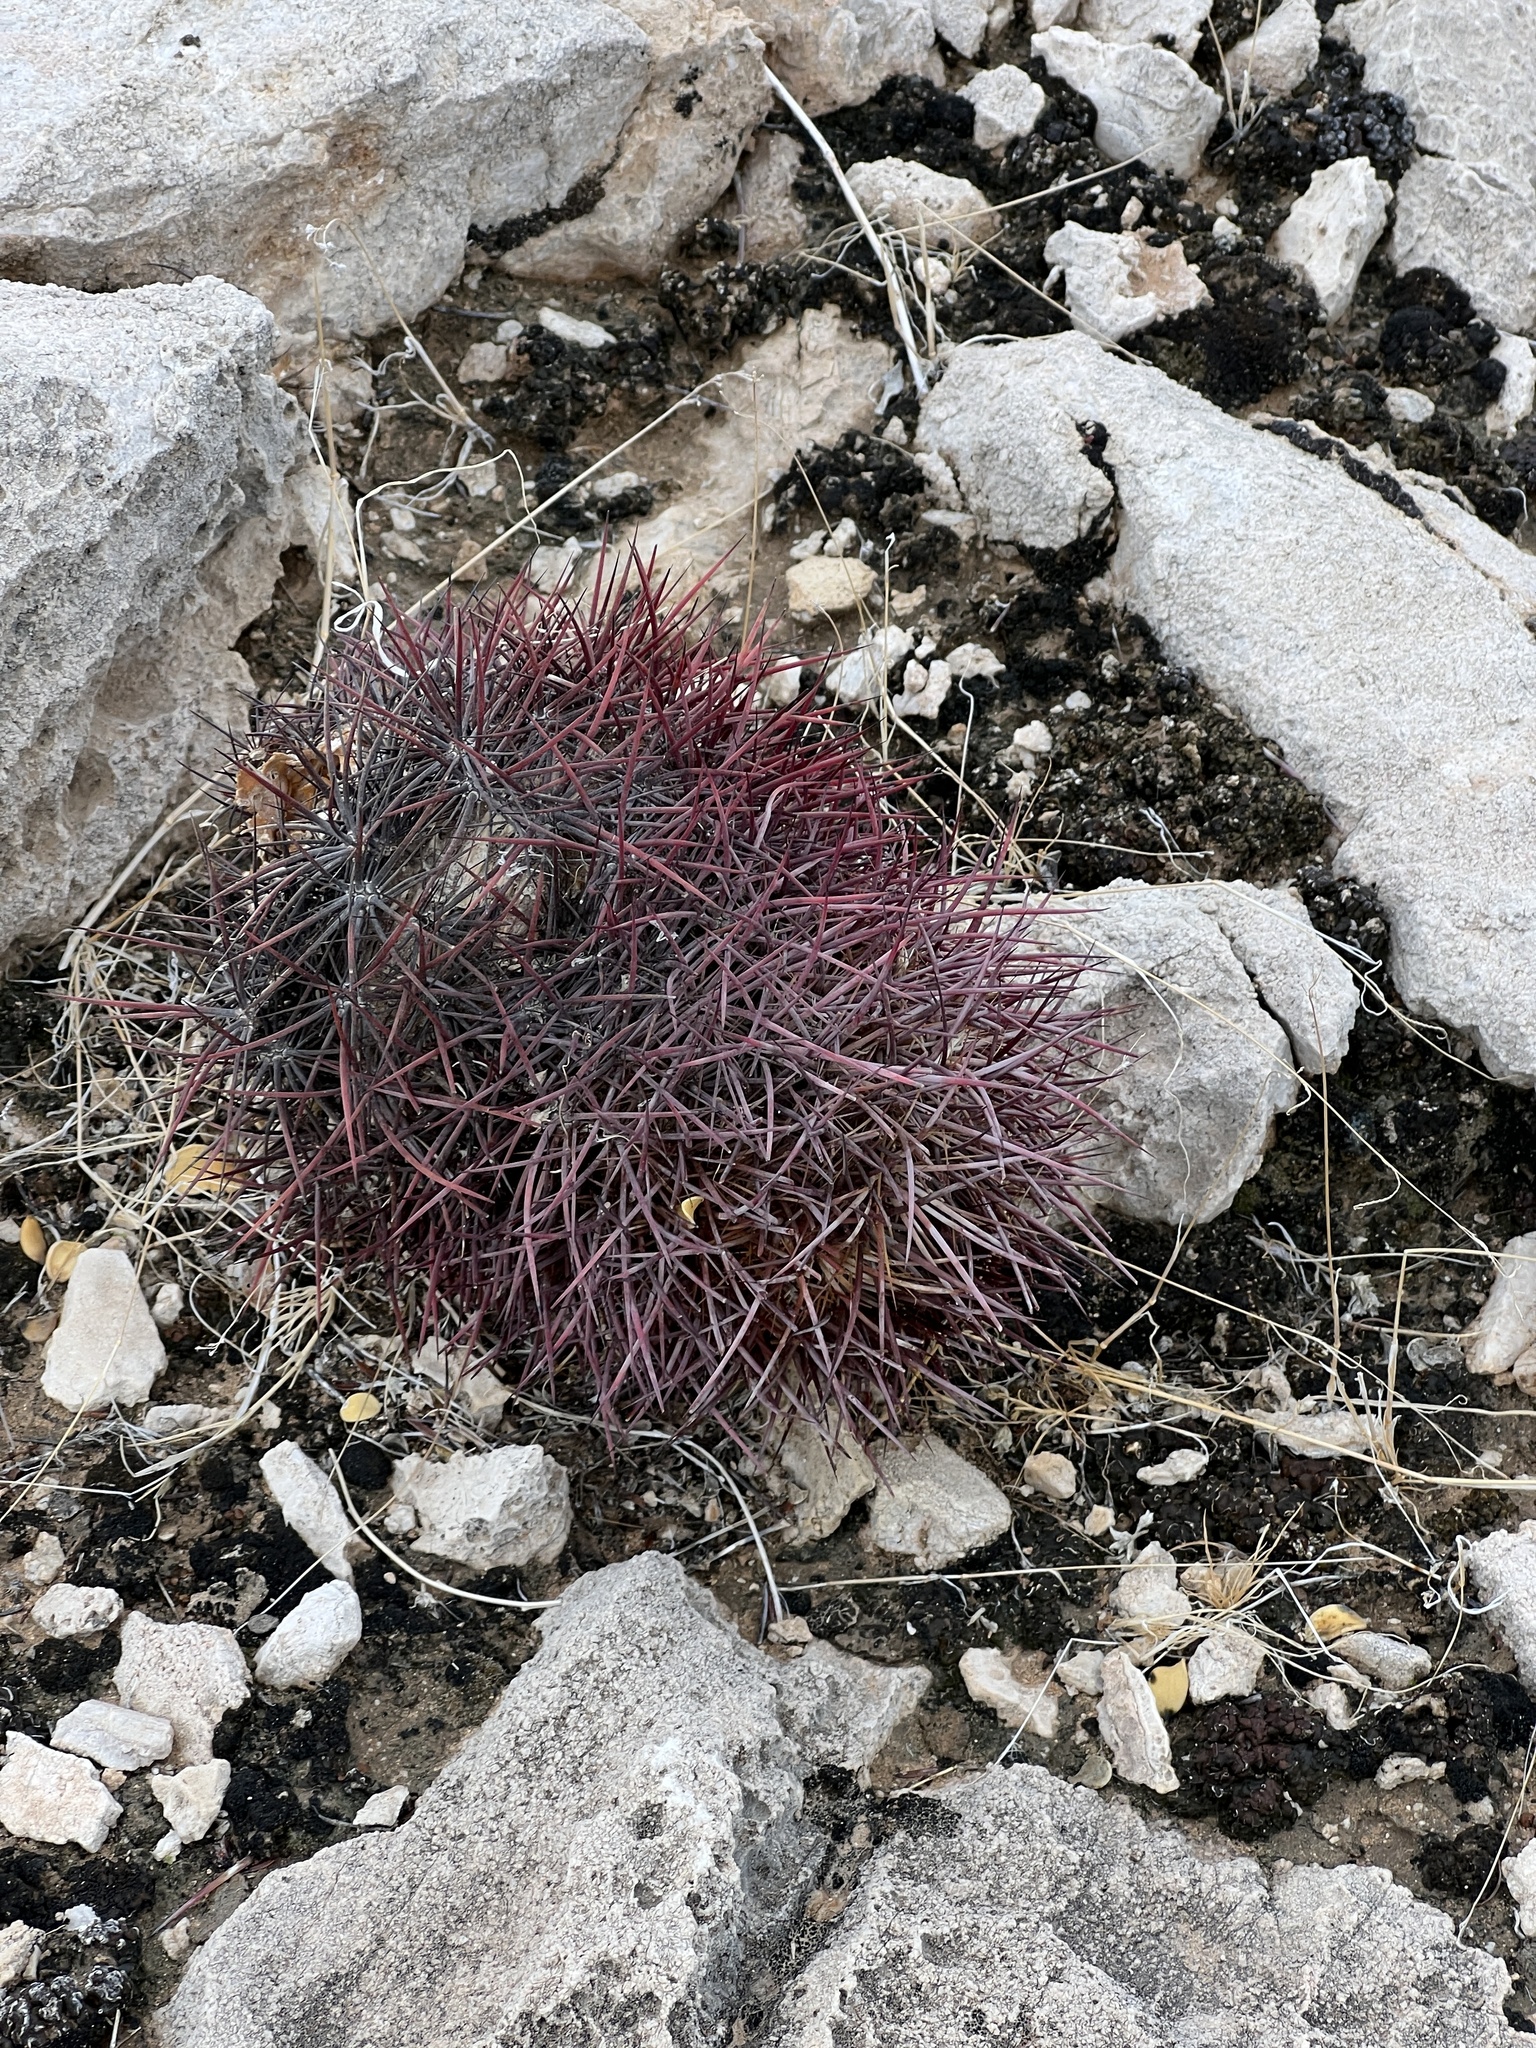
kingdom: Plantae
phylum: Tracheophyta
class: Magnoliopsida
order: Caryophyllales
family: Cactaceae
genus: Sclerocactus
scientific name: Sclerocactus johnsonii
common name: Eight-spine fishhook cactus
